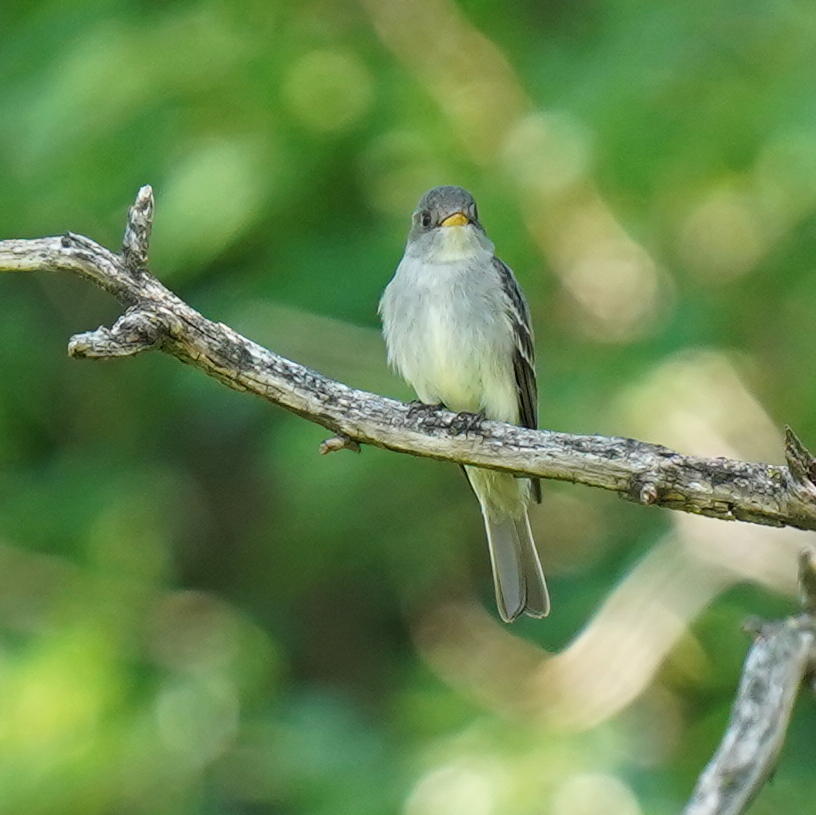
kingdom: Animalia
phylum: Chordata
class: Aves
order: Passeriformes
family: Tyrannidae
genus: Contopus
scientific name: Contopus virens
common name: Eastern wood-pewee
